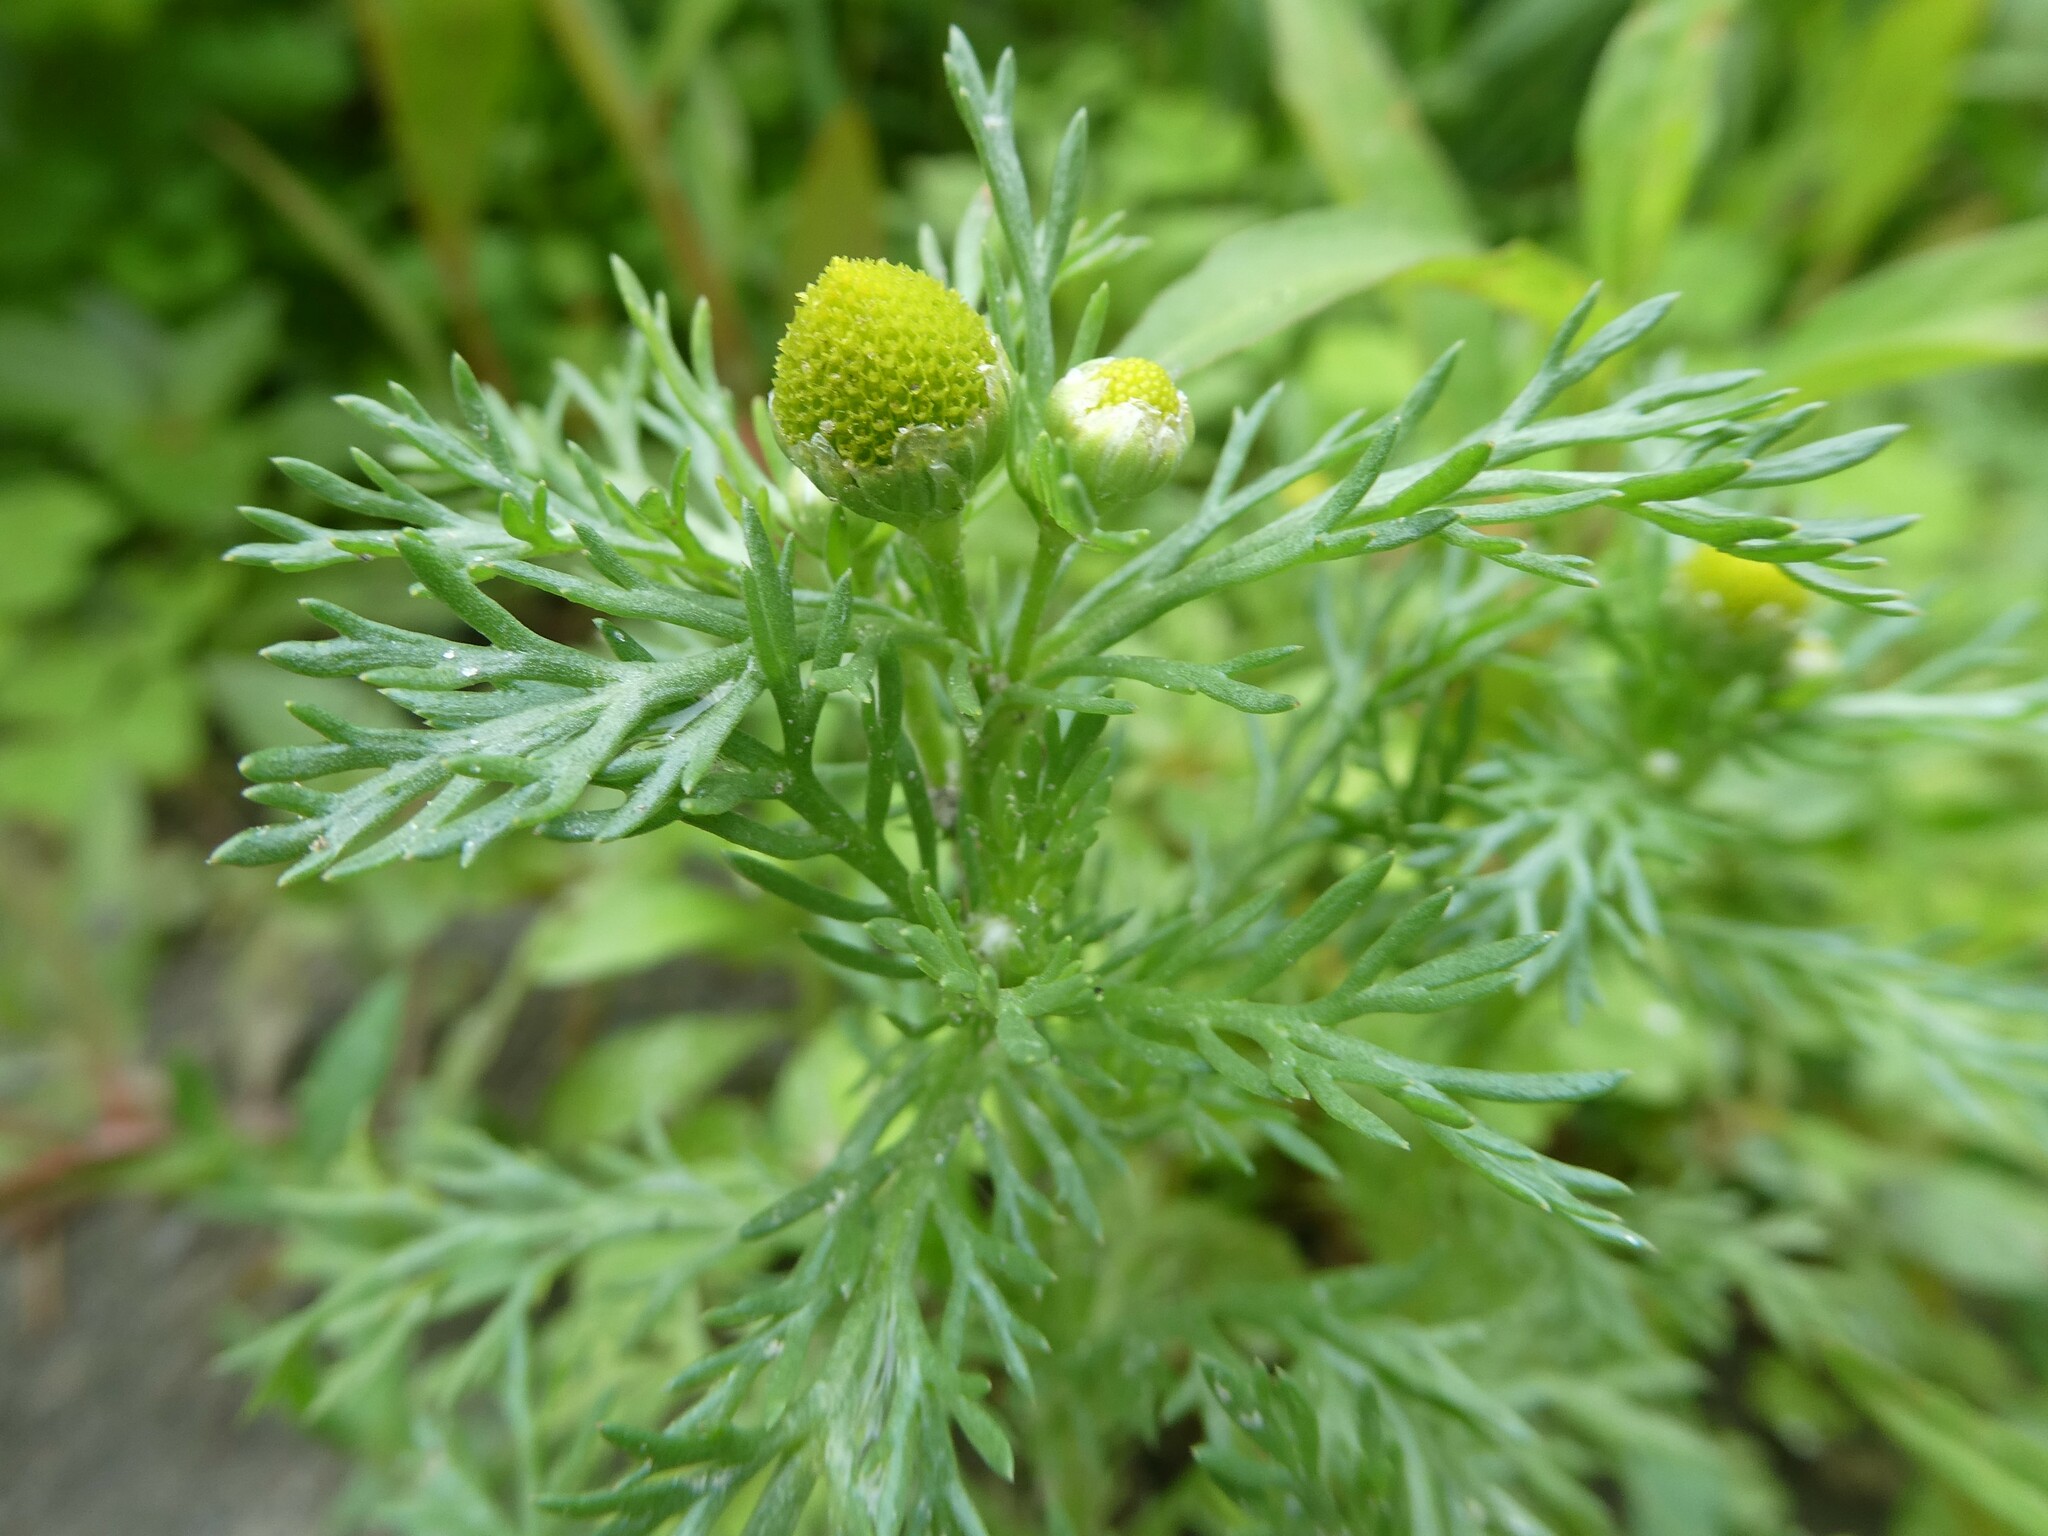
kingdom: Plantae
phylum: Tracheophyta
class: Magnoliopsida
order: Asterales
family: Asteraceae
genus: Matricaria
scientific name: Matricaria discoidea
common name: Disc mayweed
